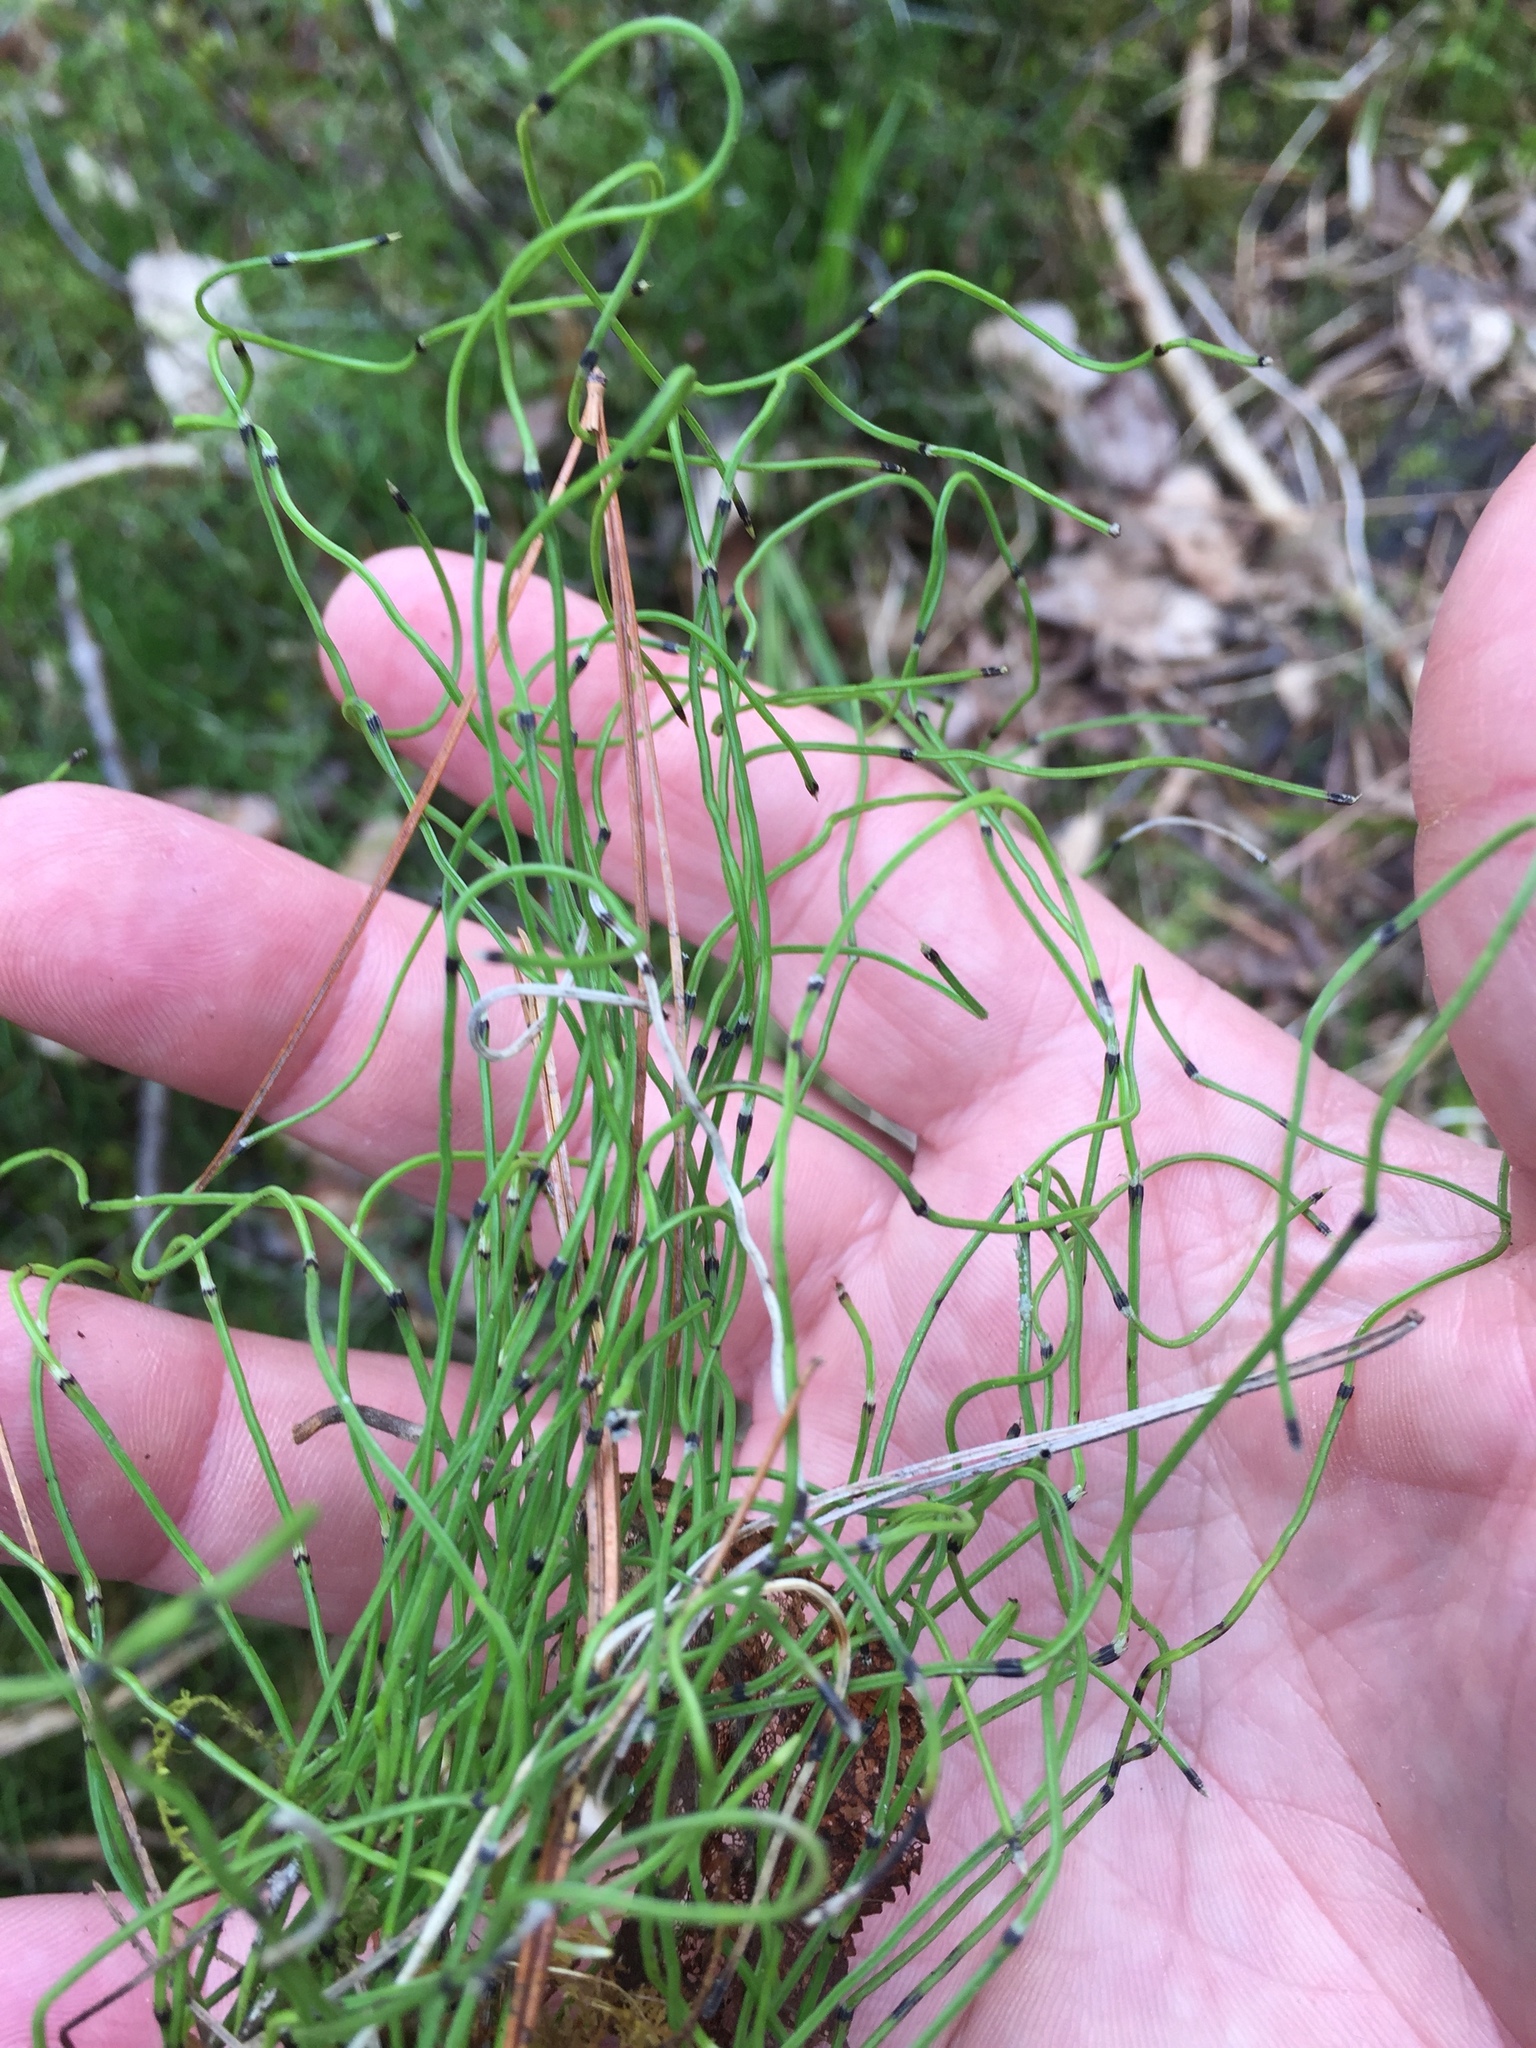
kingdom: Plantae
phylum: Tracheophyta
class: Polypodiopsida
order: Equisetales
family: Equisetaceae
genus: Equisetum
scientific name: Equisetum scirpoides
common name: Delicate horsetail
